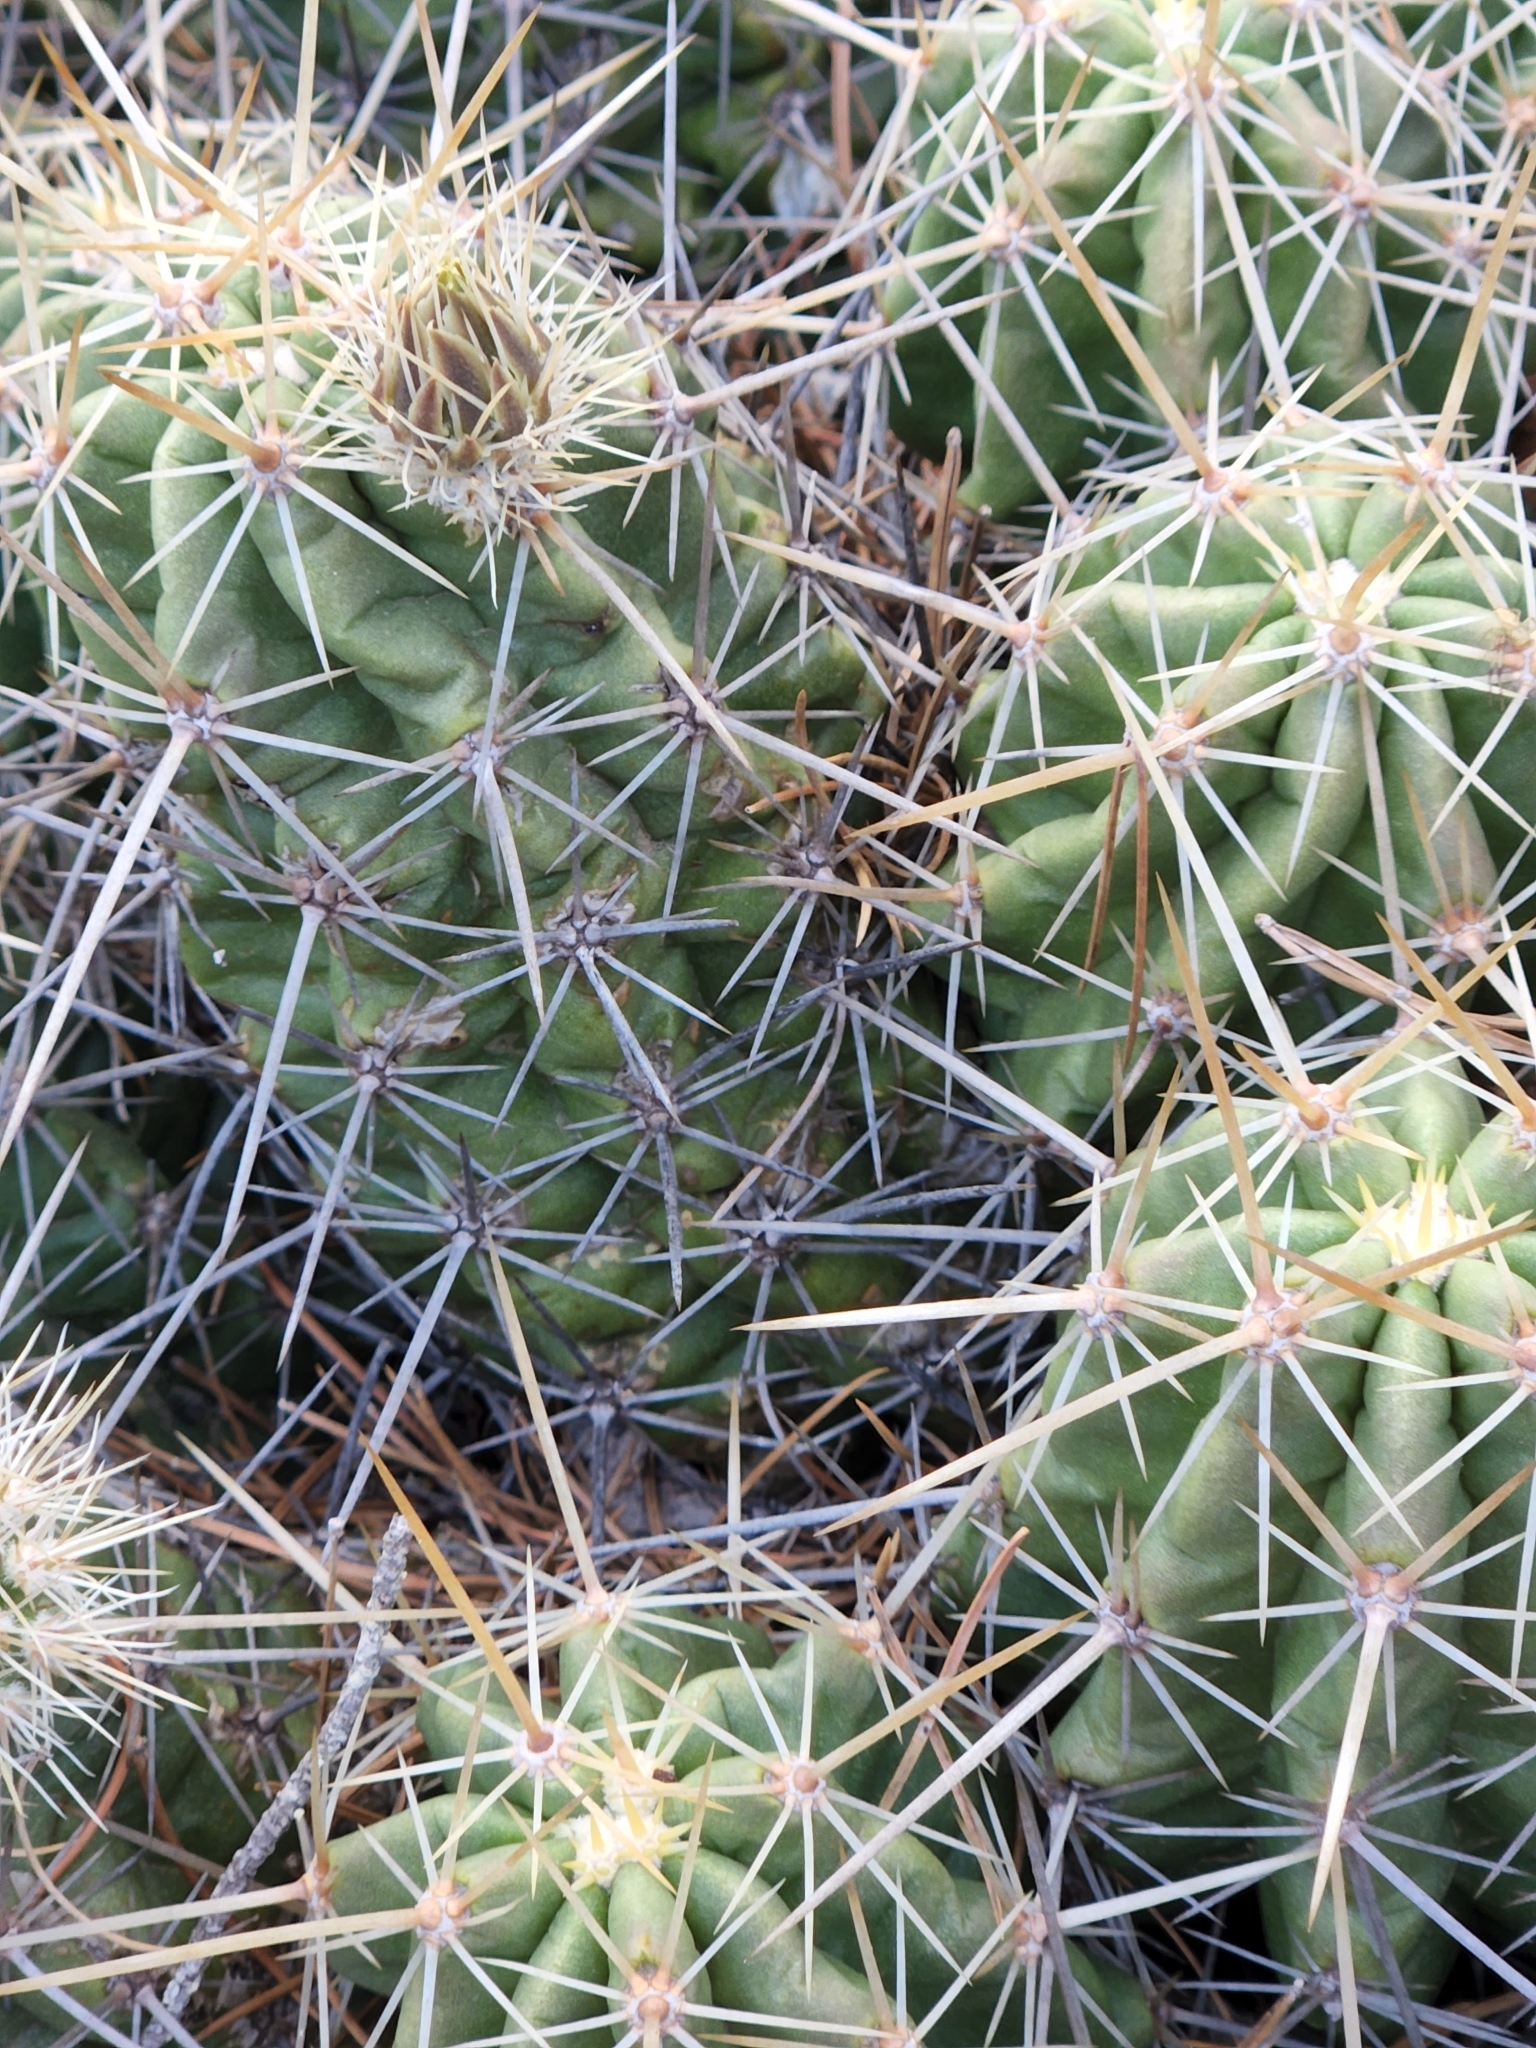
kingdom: Plantae
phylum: Tracheophyta
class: Magnoliopsida
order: Caryophyllales
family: Cactaceae
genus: Echinocereus
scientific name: Echinocereus enneacanthus
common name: Pitaya
